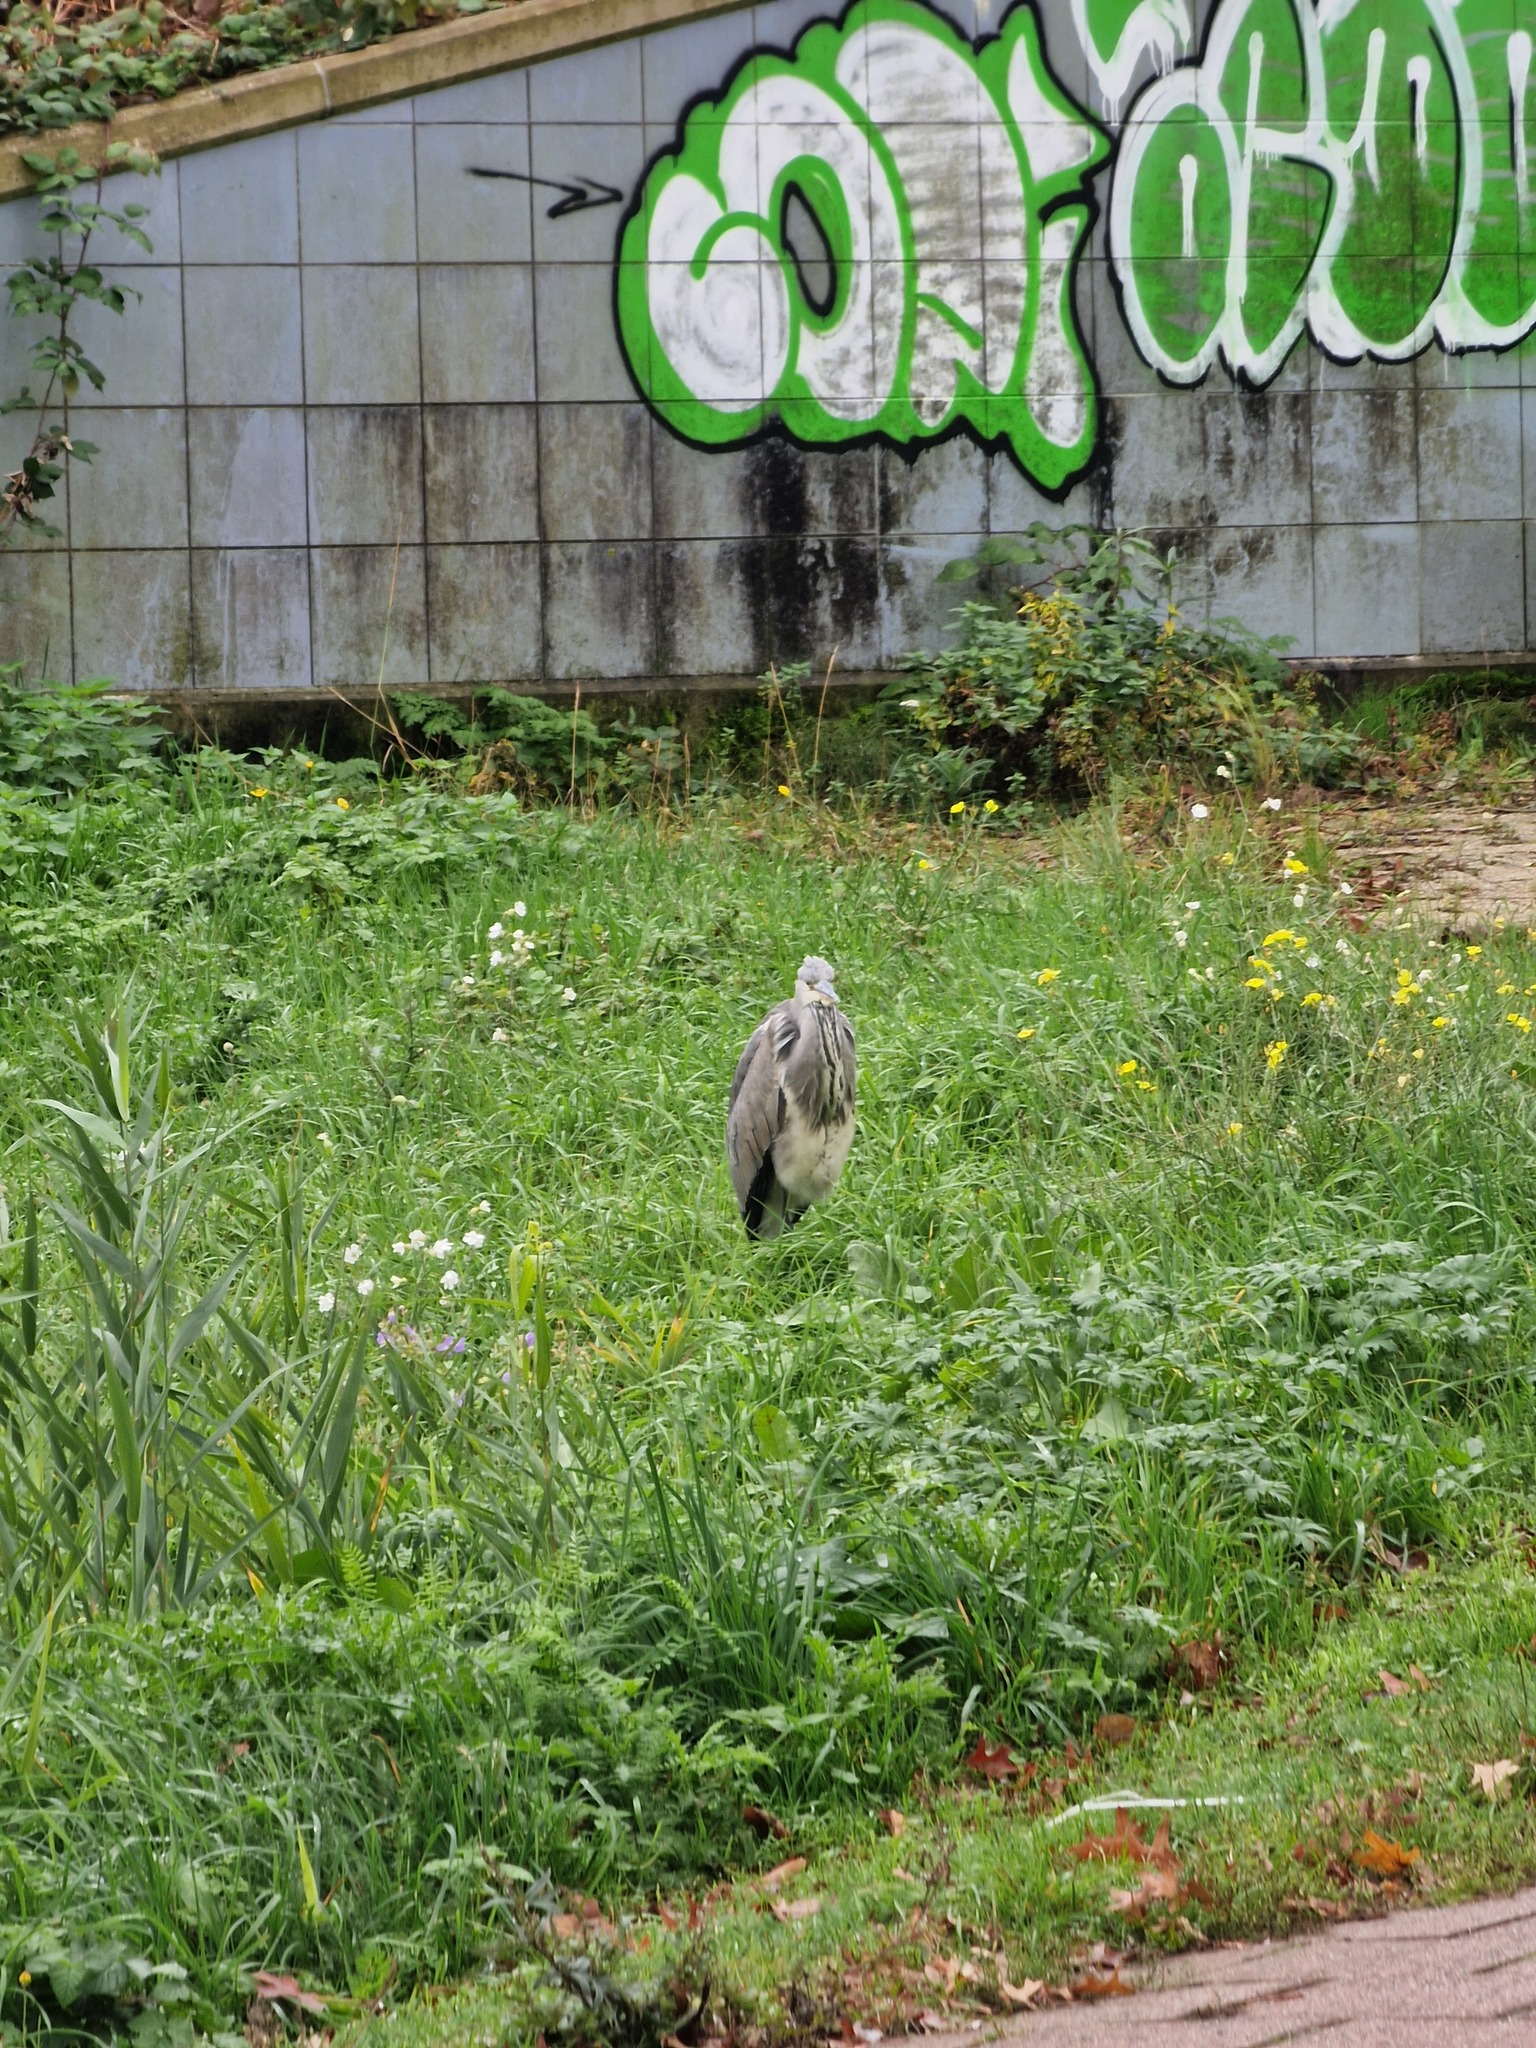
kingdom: Animalia
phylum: Chordata
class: Aves
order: Pelecaniformes
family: Ardeidae
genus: Ardea
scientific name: Ardea cinerea
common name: Grey heron
